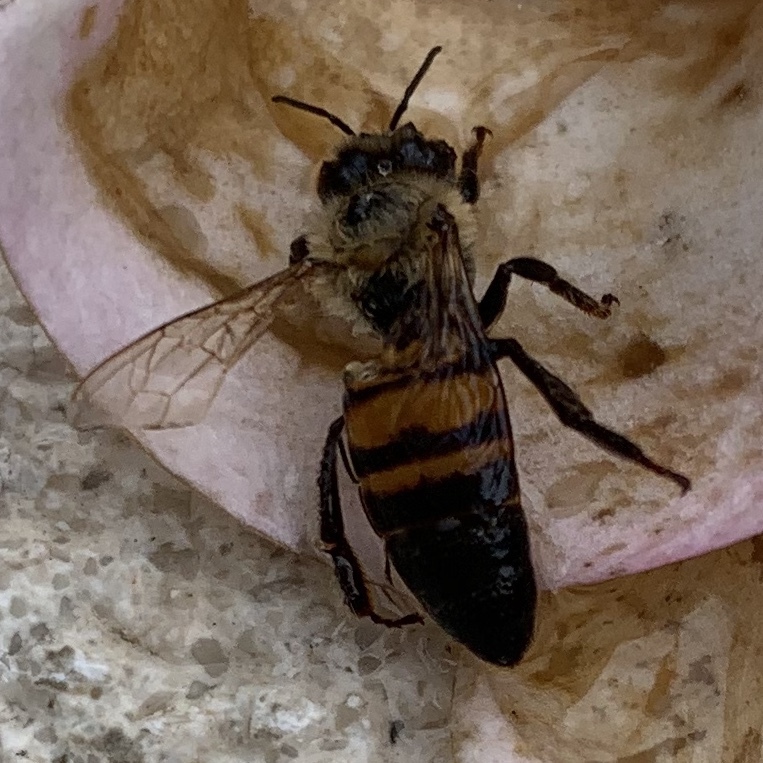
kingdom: Animalia
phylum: Arthropoda
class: Insecta
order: Hymenoptera
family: Apidae
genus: Apis
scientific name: Apis mellifera
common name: Honey bee
